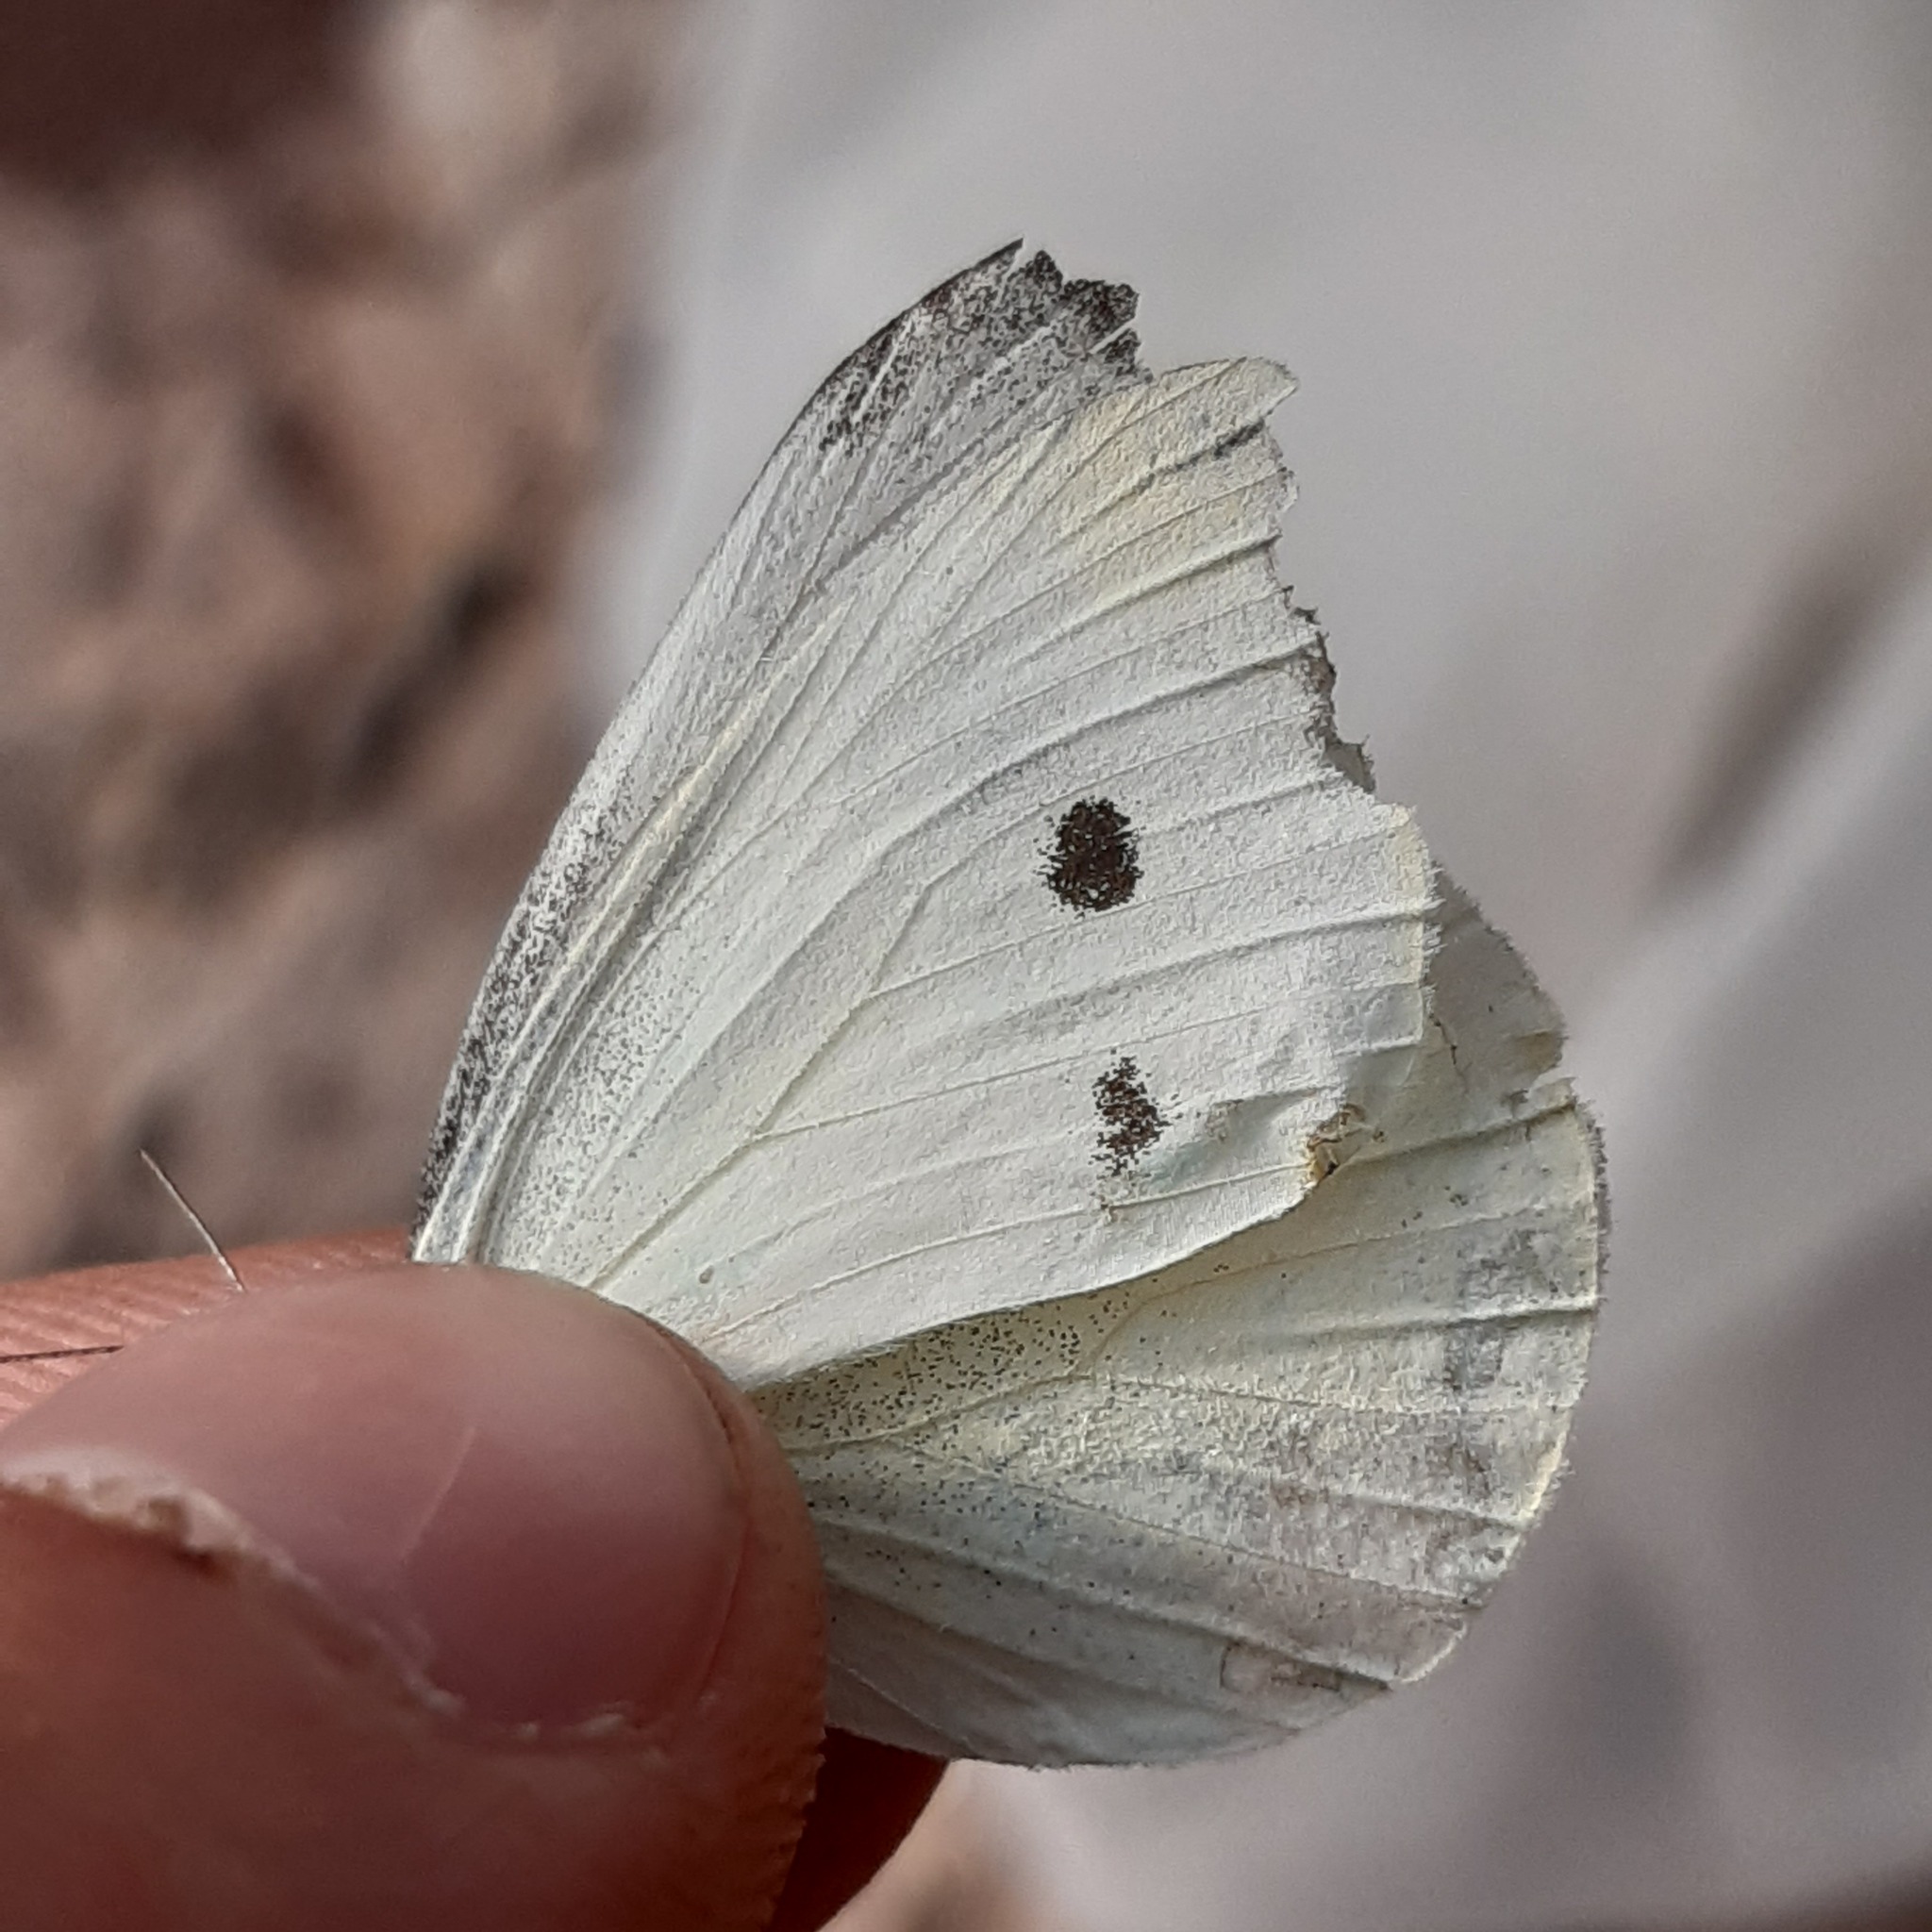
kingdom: Animalia
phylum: Arthropoda
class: Insecta
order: Lepidoptera
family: Pieridae
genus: Pieris
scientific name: Pieris rapae
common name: Small white
